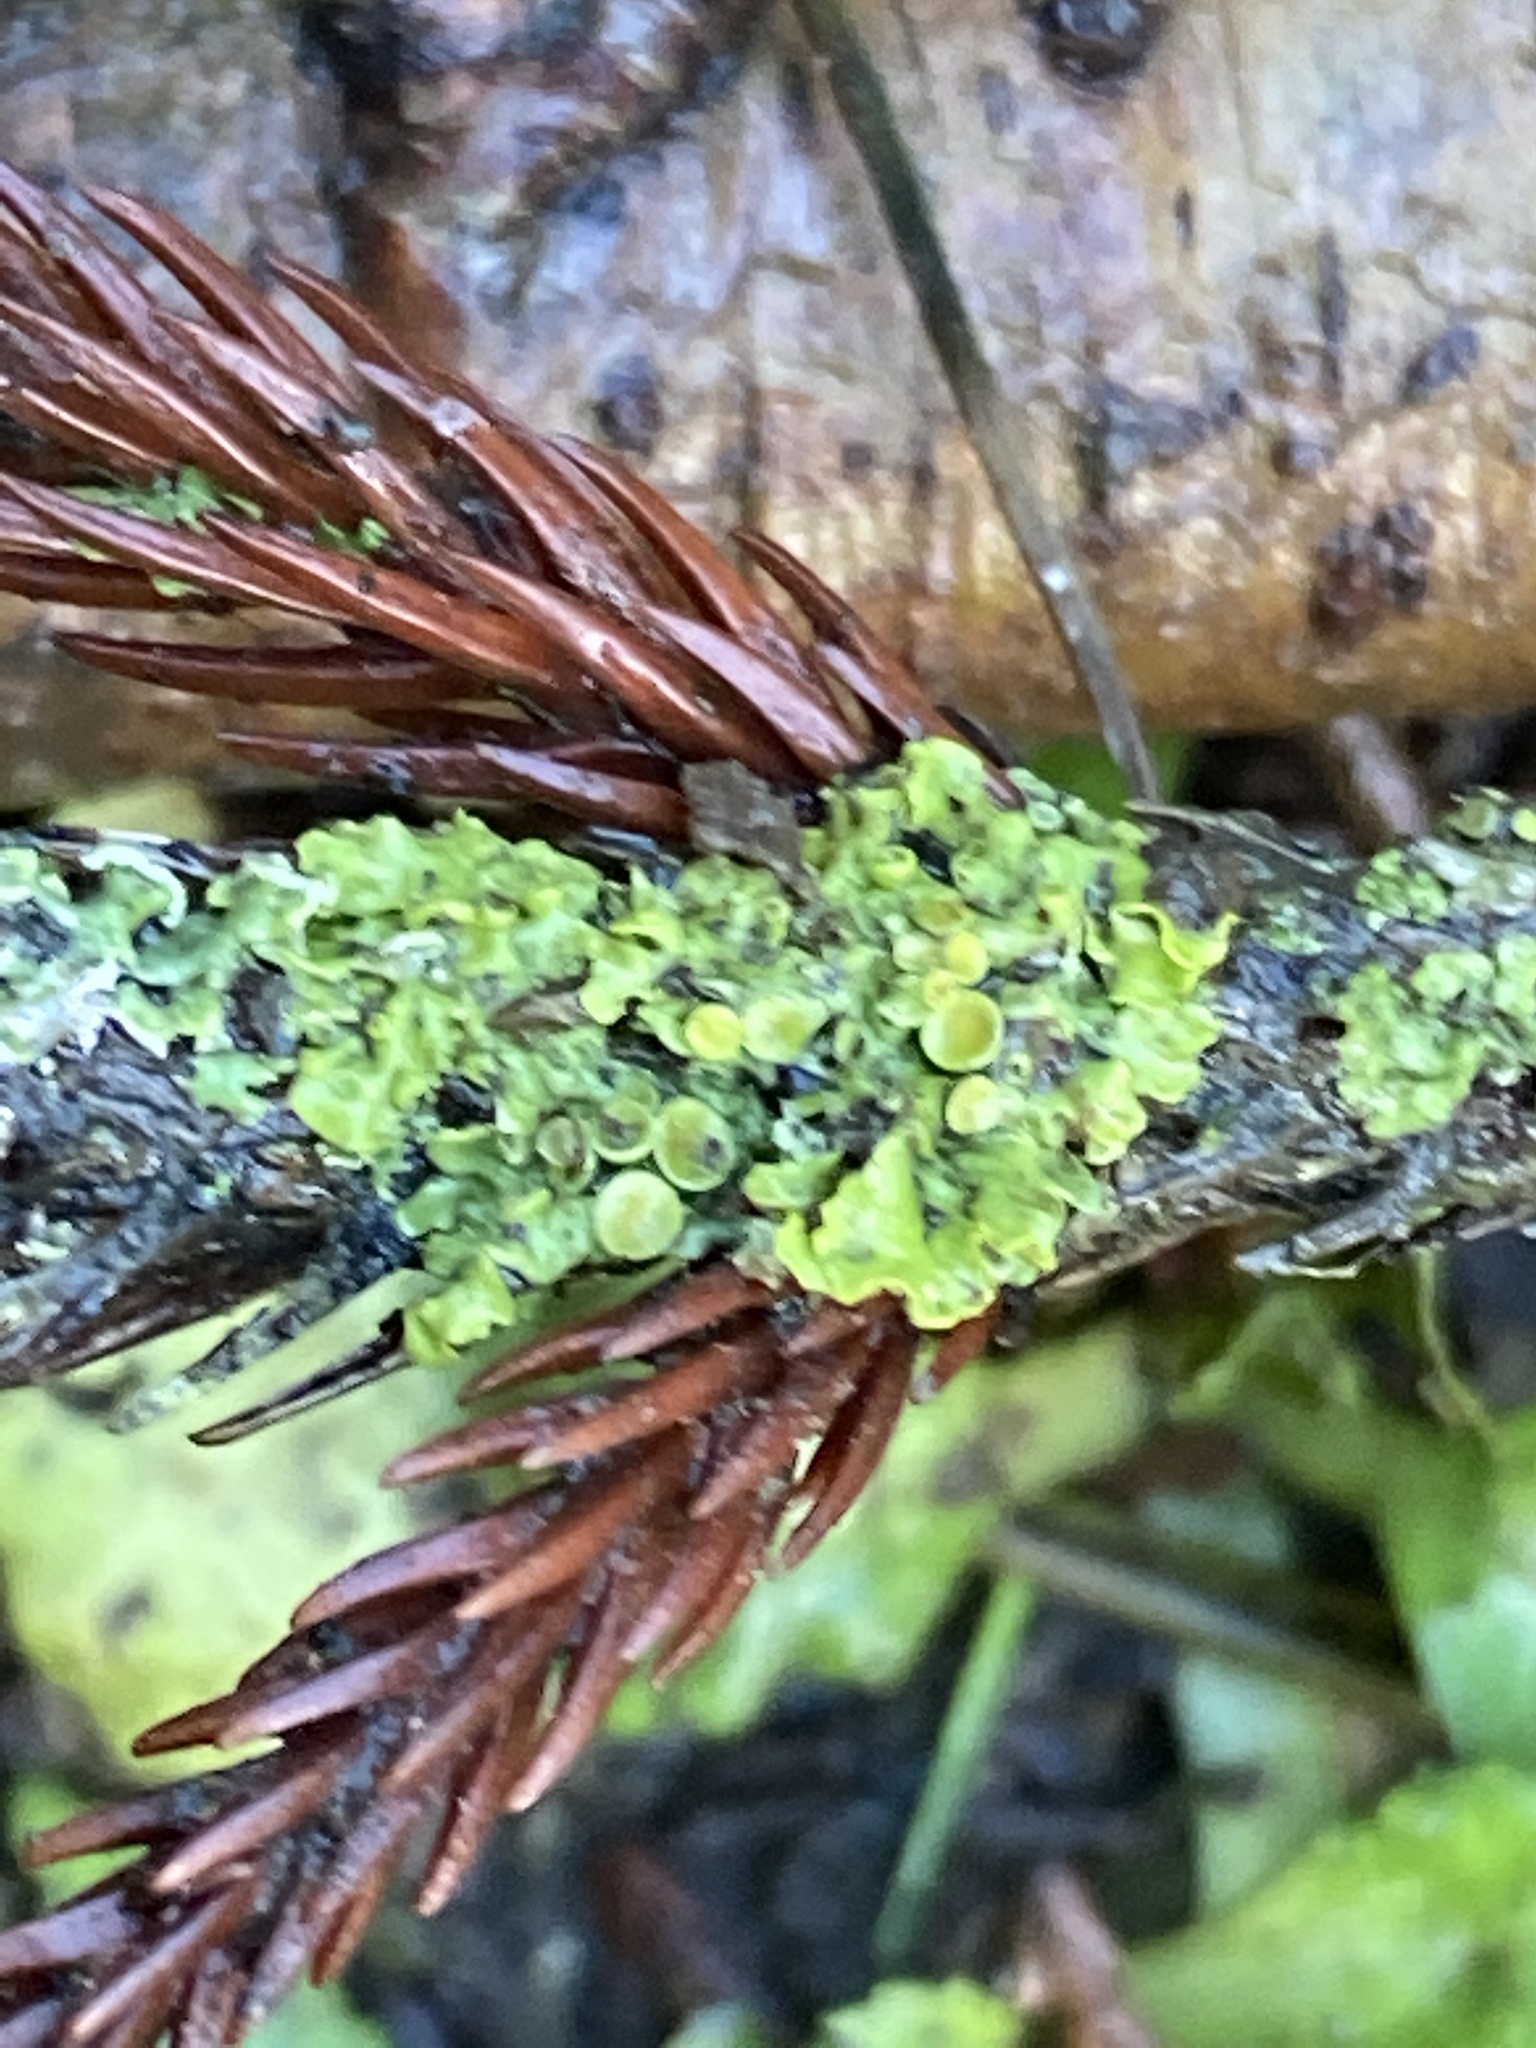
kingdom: Fungi
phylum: Ascomycota
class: Lecanoromycetes
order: Teloschistales
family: Teloschistaceae
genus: Xanthoria
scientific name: Xanthoria parietina
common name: Common orange lichen
